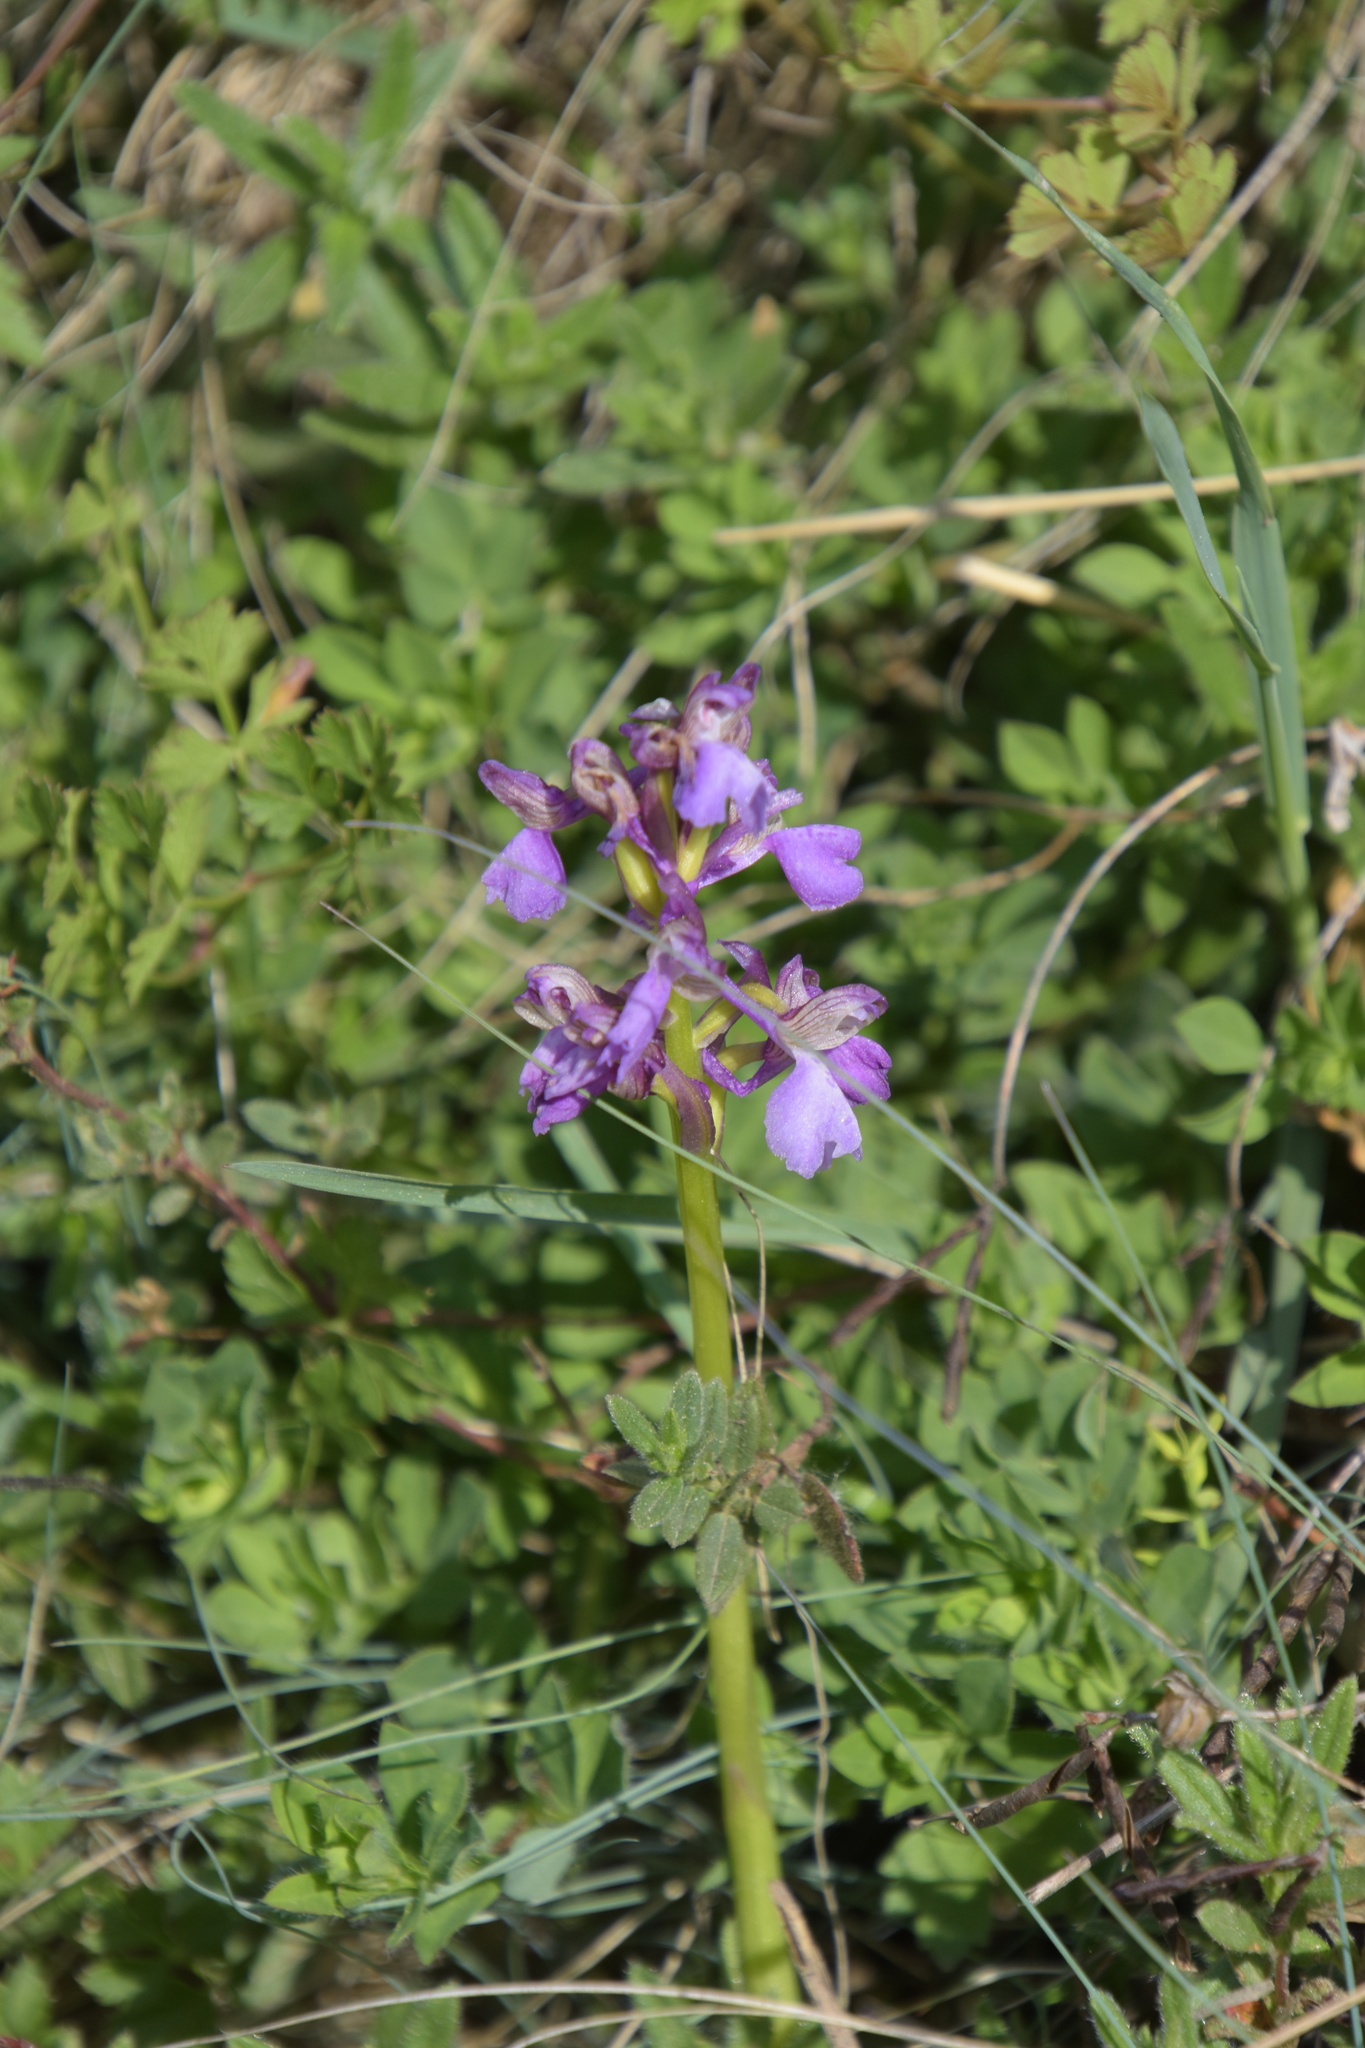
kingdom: Plantae
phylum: Tracheophyta
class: Liliopsida
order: Asparagales
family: Orchidaceae
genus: Anacamptis
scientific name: Anacamptis morio
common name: Green-winged orchid
